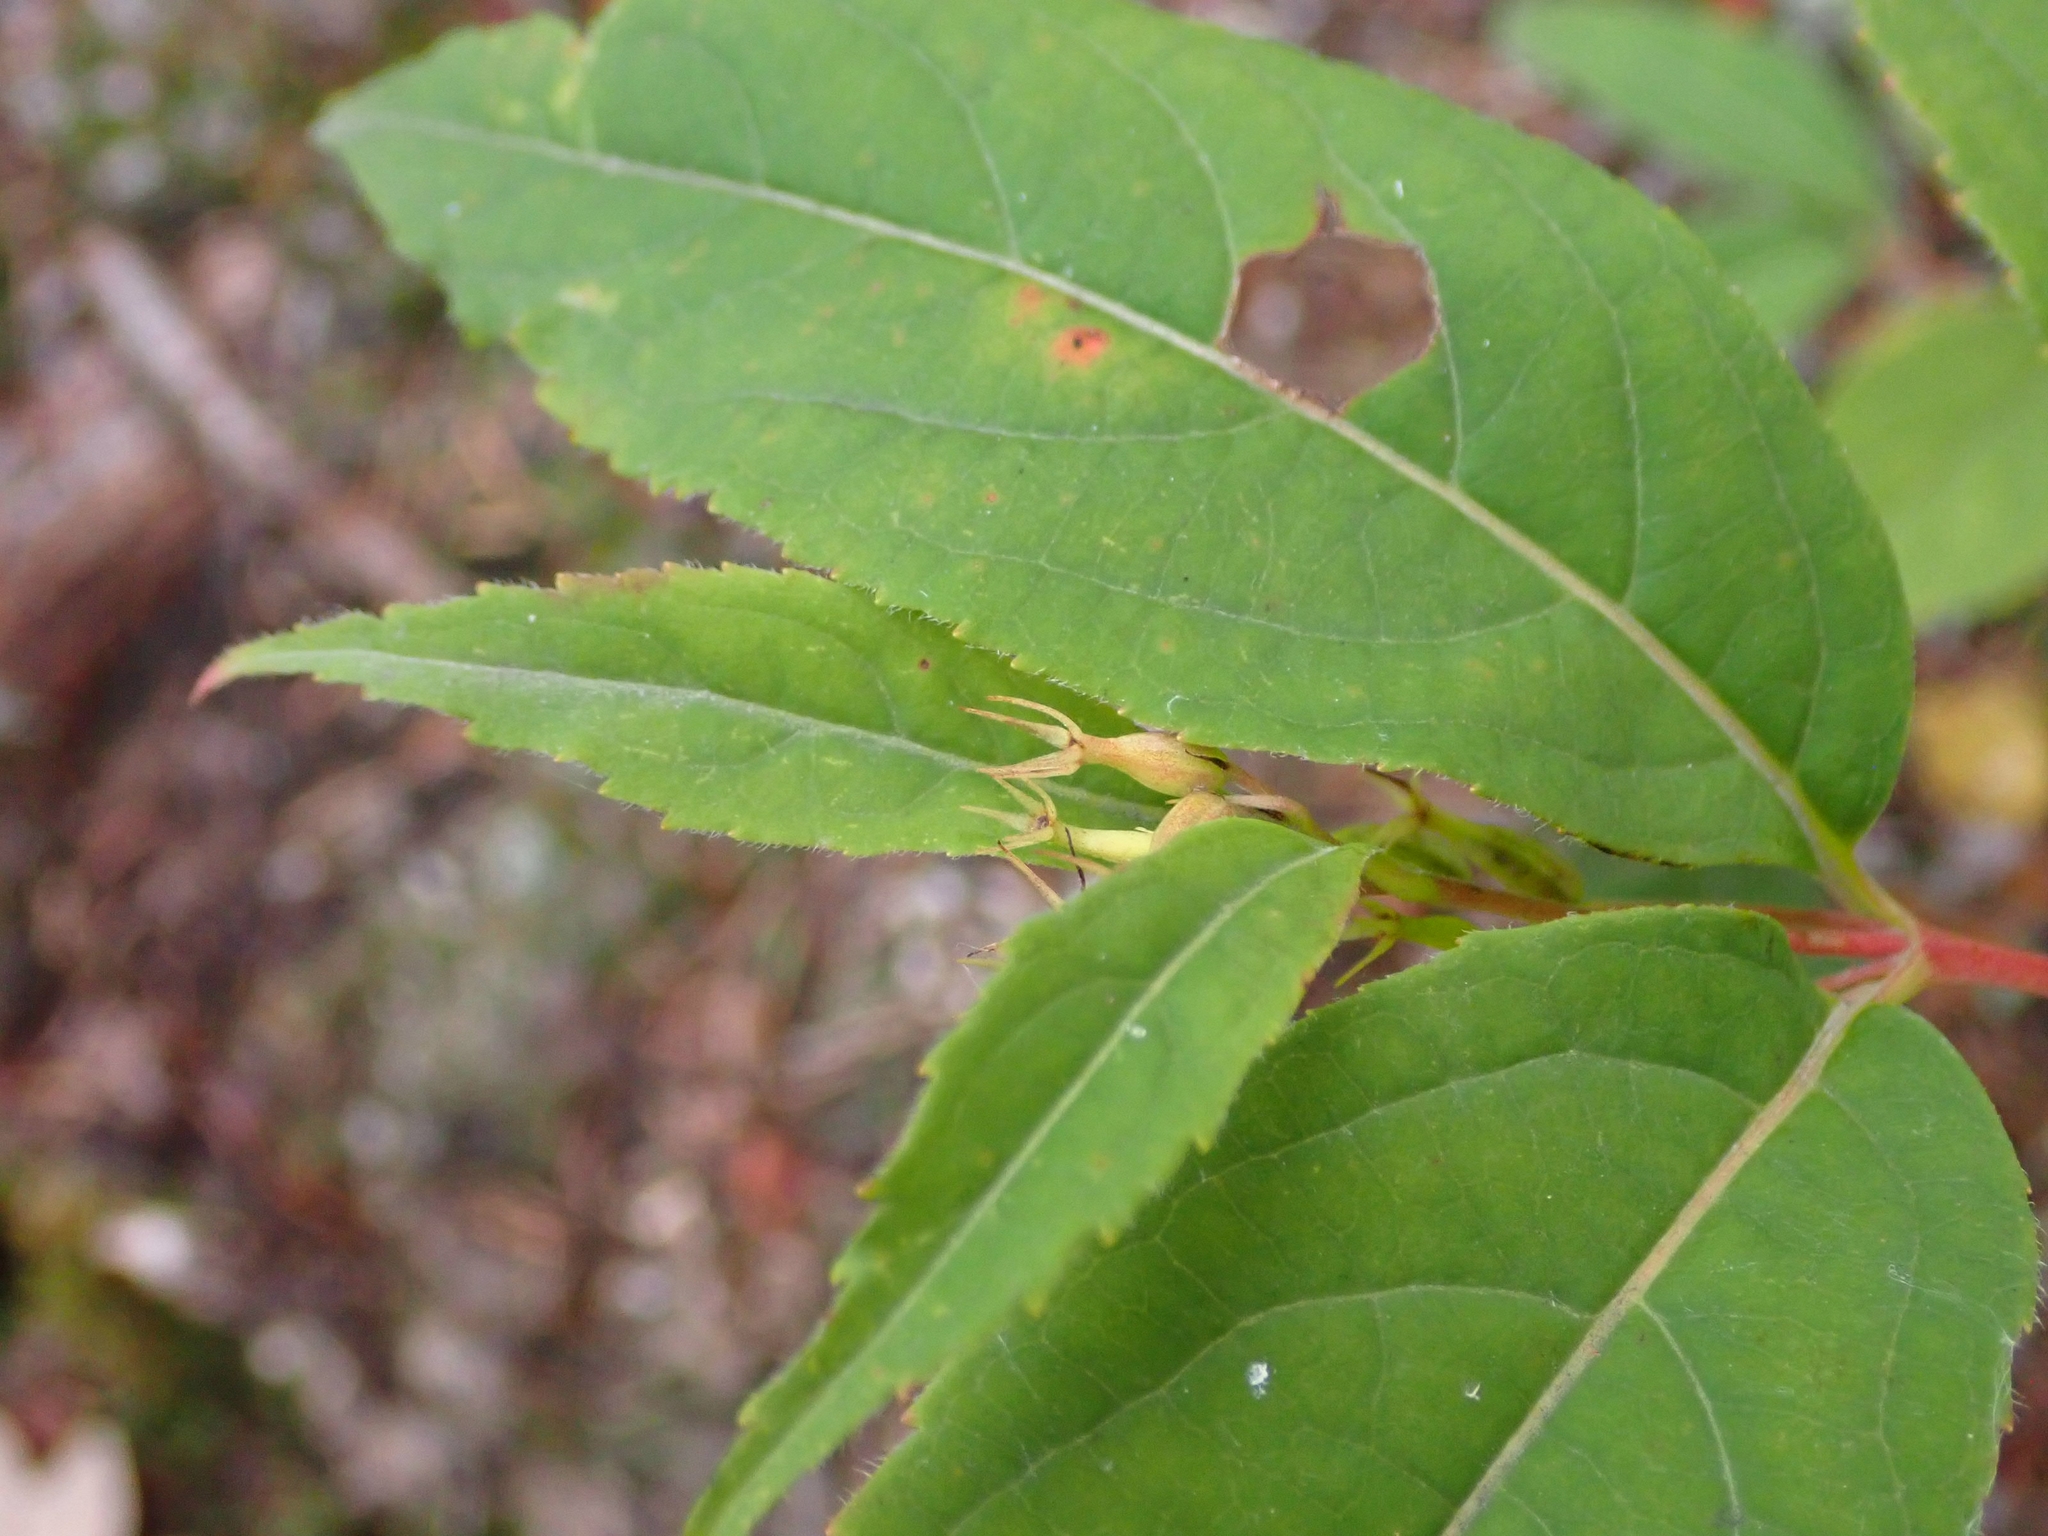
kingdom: Plantae
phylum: Tracheophyta
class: Magnoliopsida
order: Dipsacales
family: Caprifoliaceae
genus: Diervilla
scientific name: Diervilla lonicera
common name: Bush-honeysuckle
